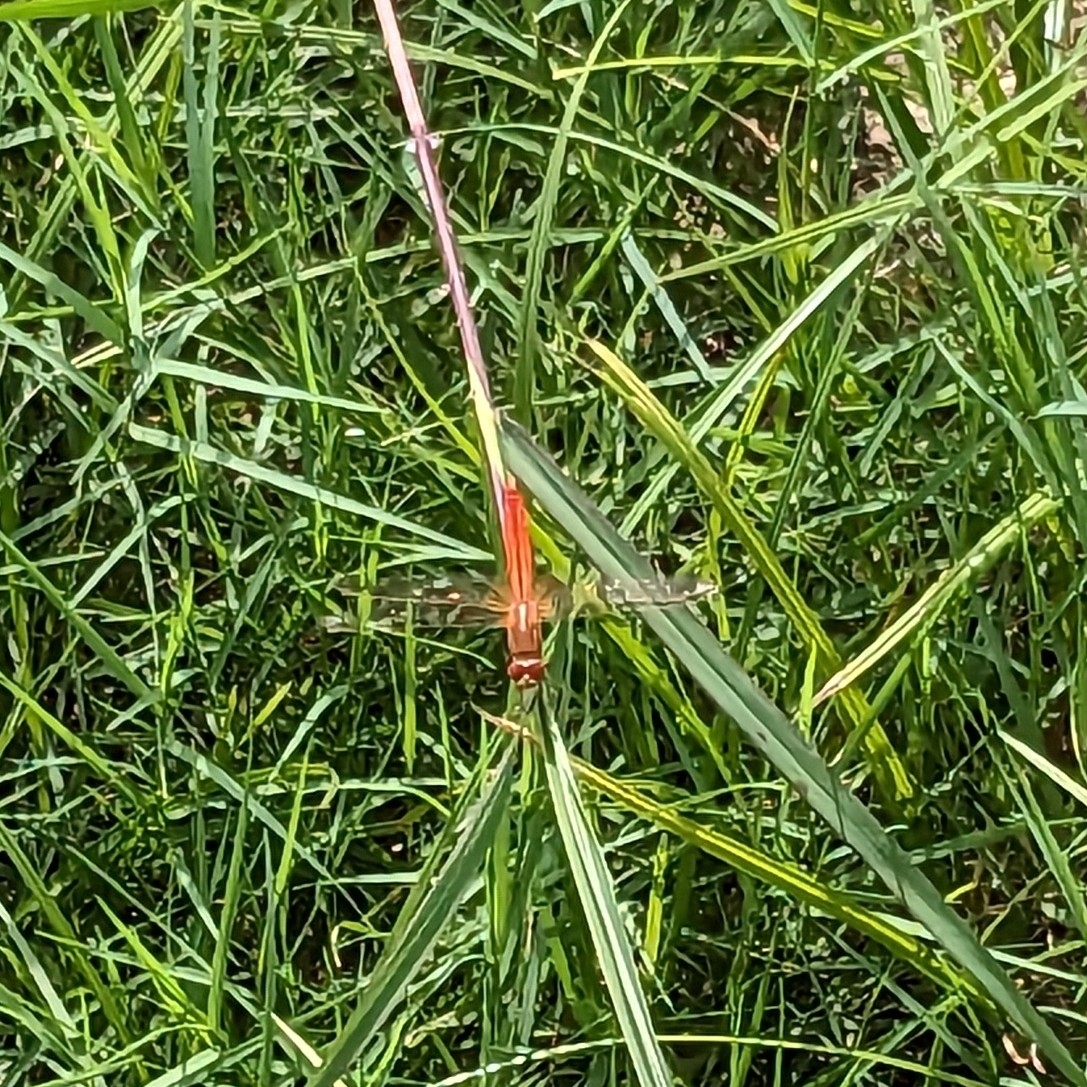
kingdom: Animalia
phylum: Arthropoda
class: Insecta
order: Odonata
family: Libellulidae
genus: Crocothemis
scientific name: Crocothemis servilia
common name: Scarlet skimmer
